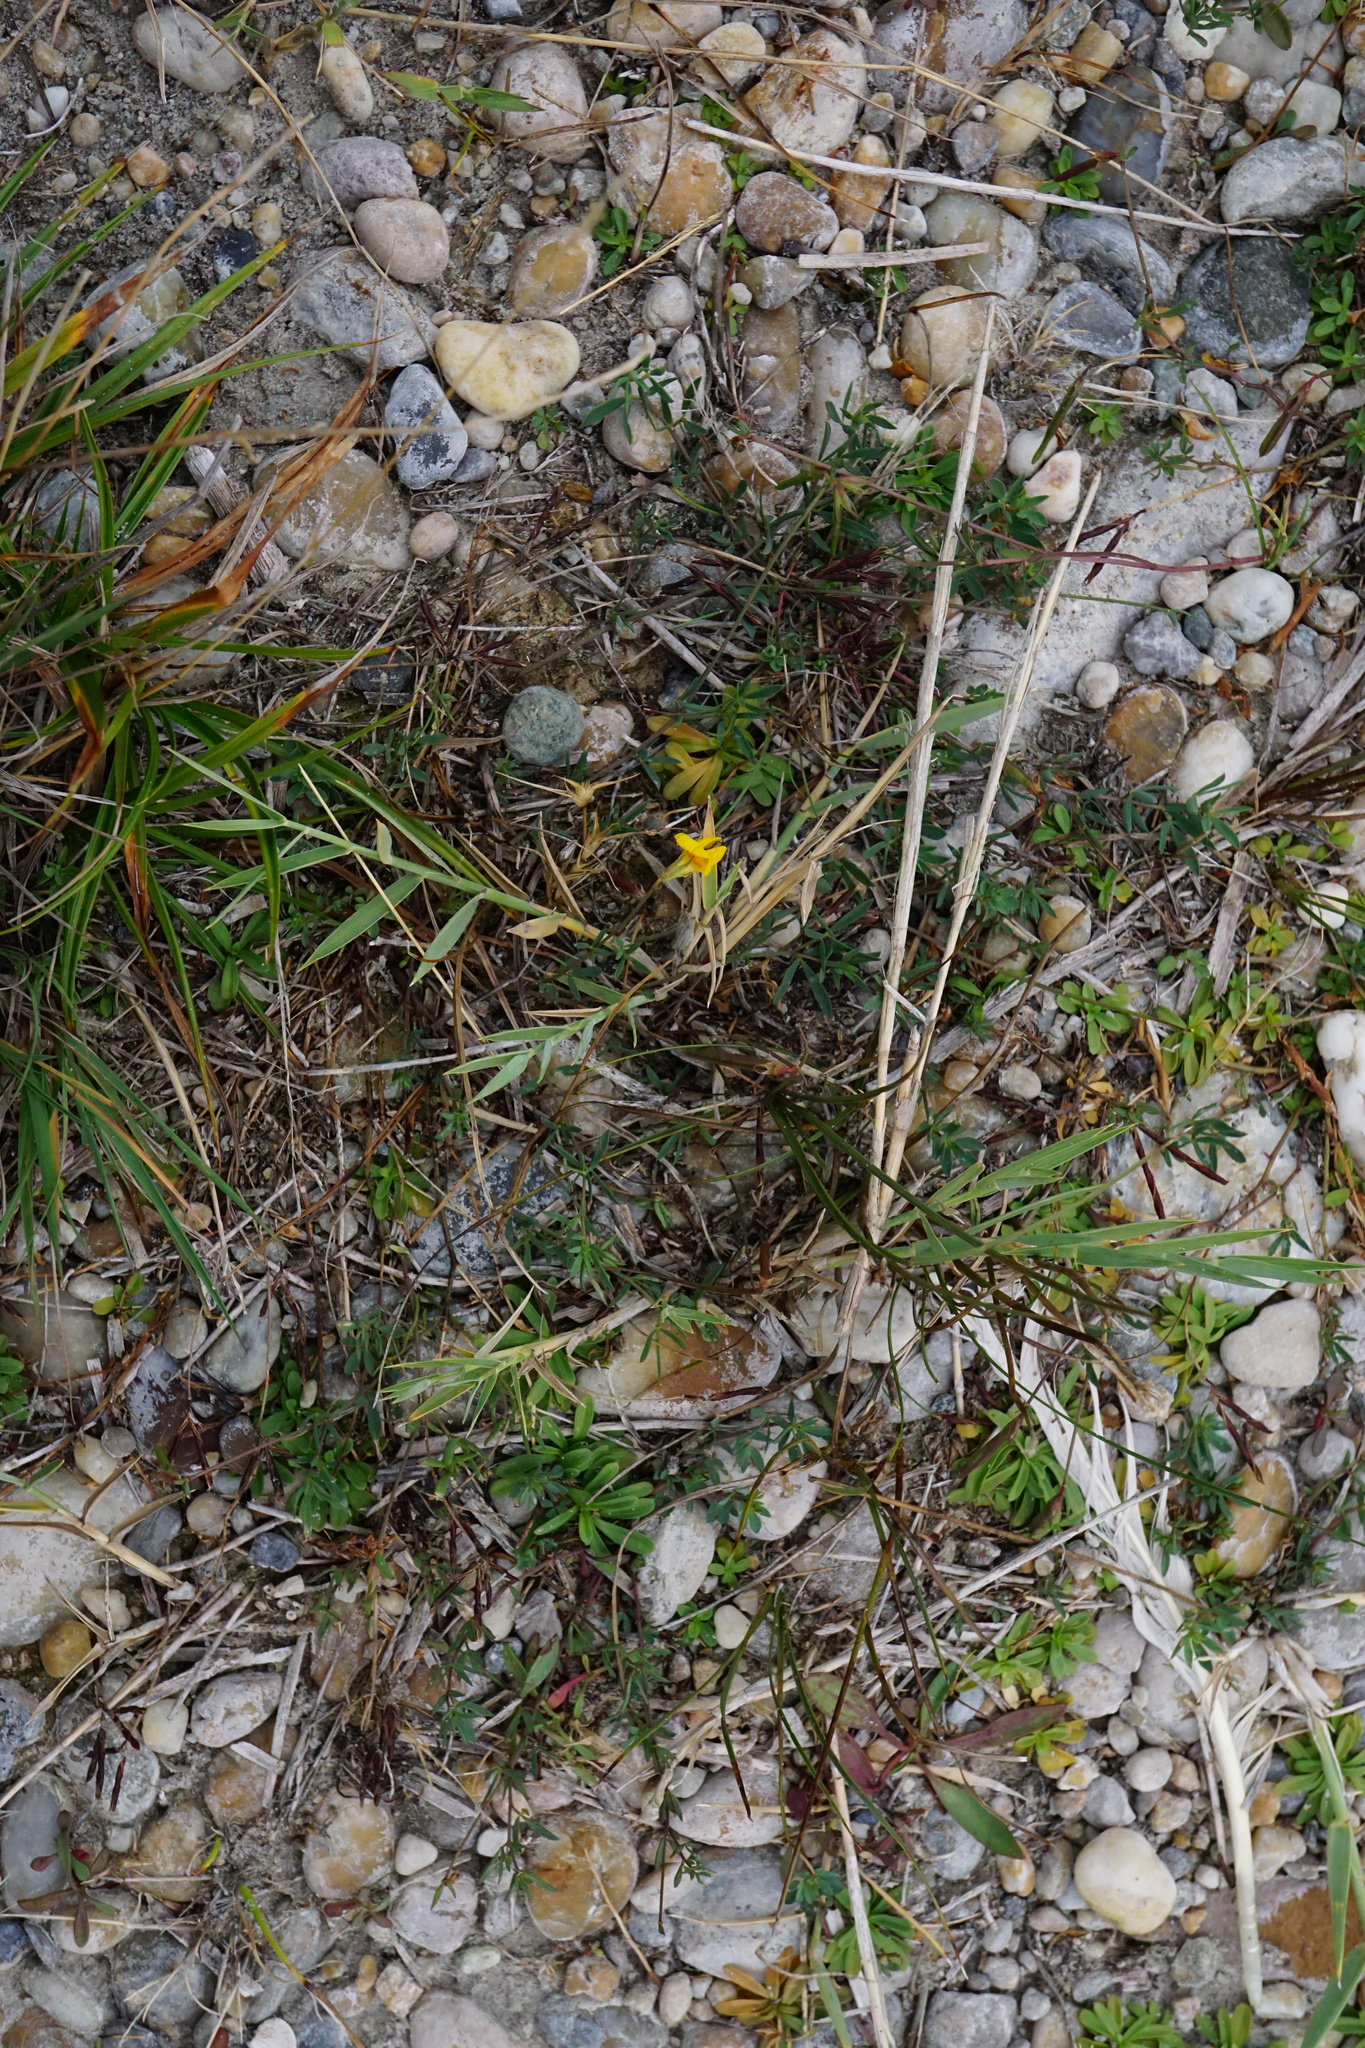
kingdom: Plantae
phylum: Tracheophyta
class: Magnoliopsida
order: Fabales
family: Fabaceae
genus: Lotus
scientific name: Lotus tenuis
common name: Narrow-leaved bird's-foot-trefoil
